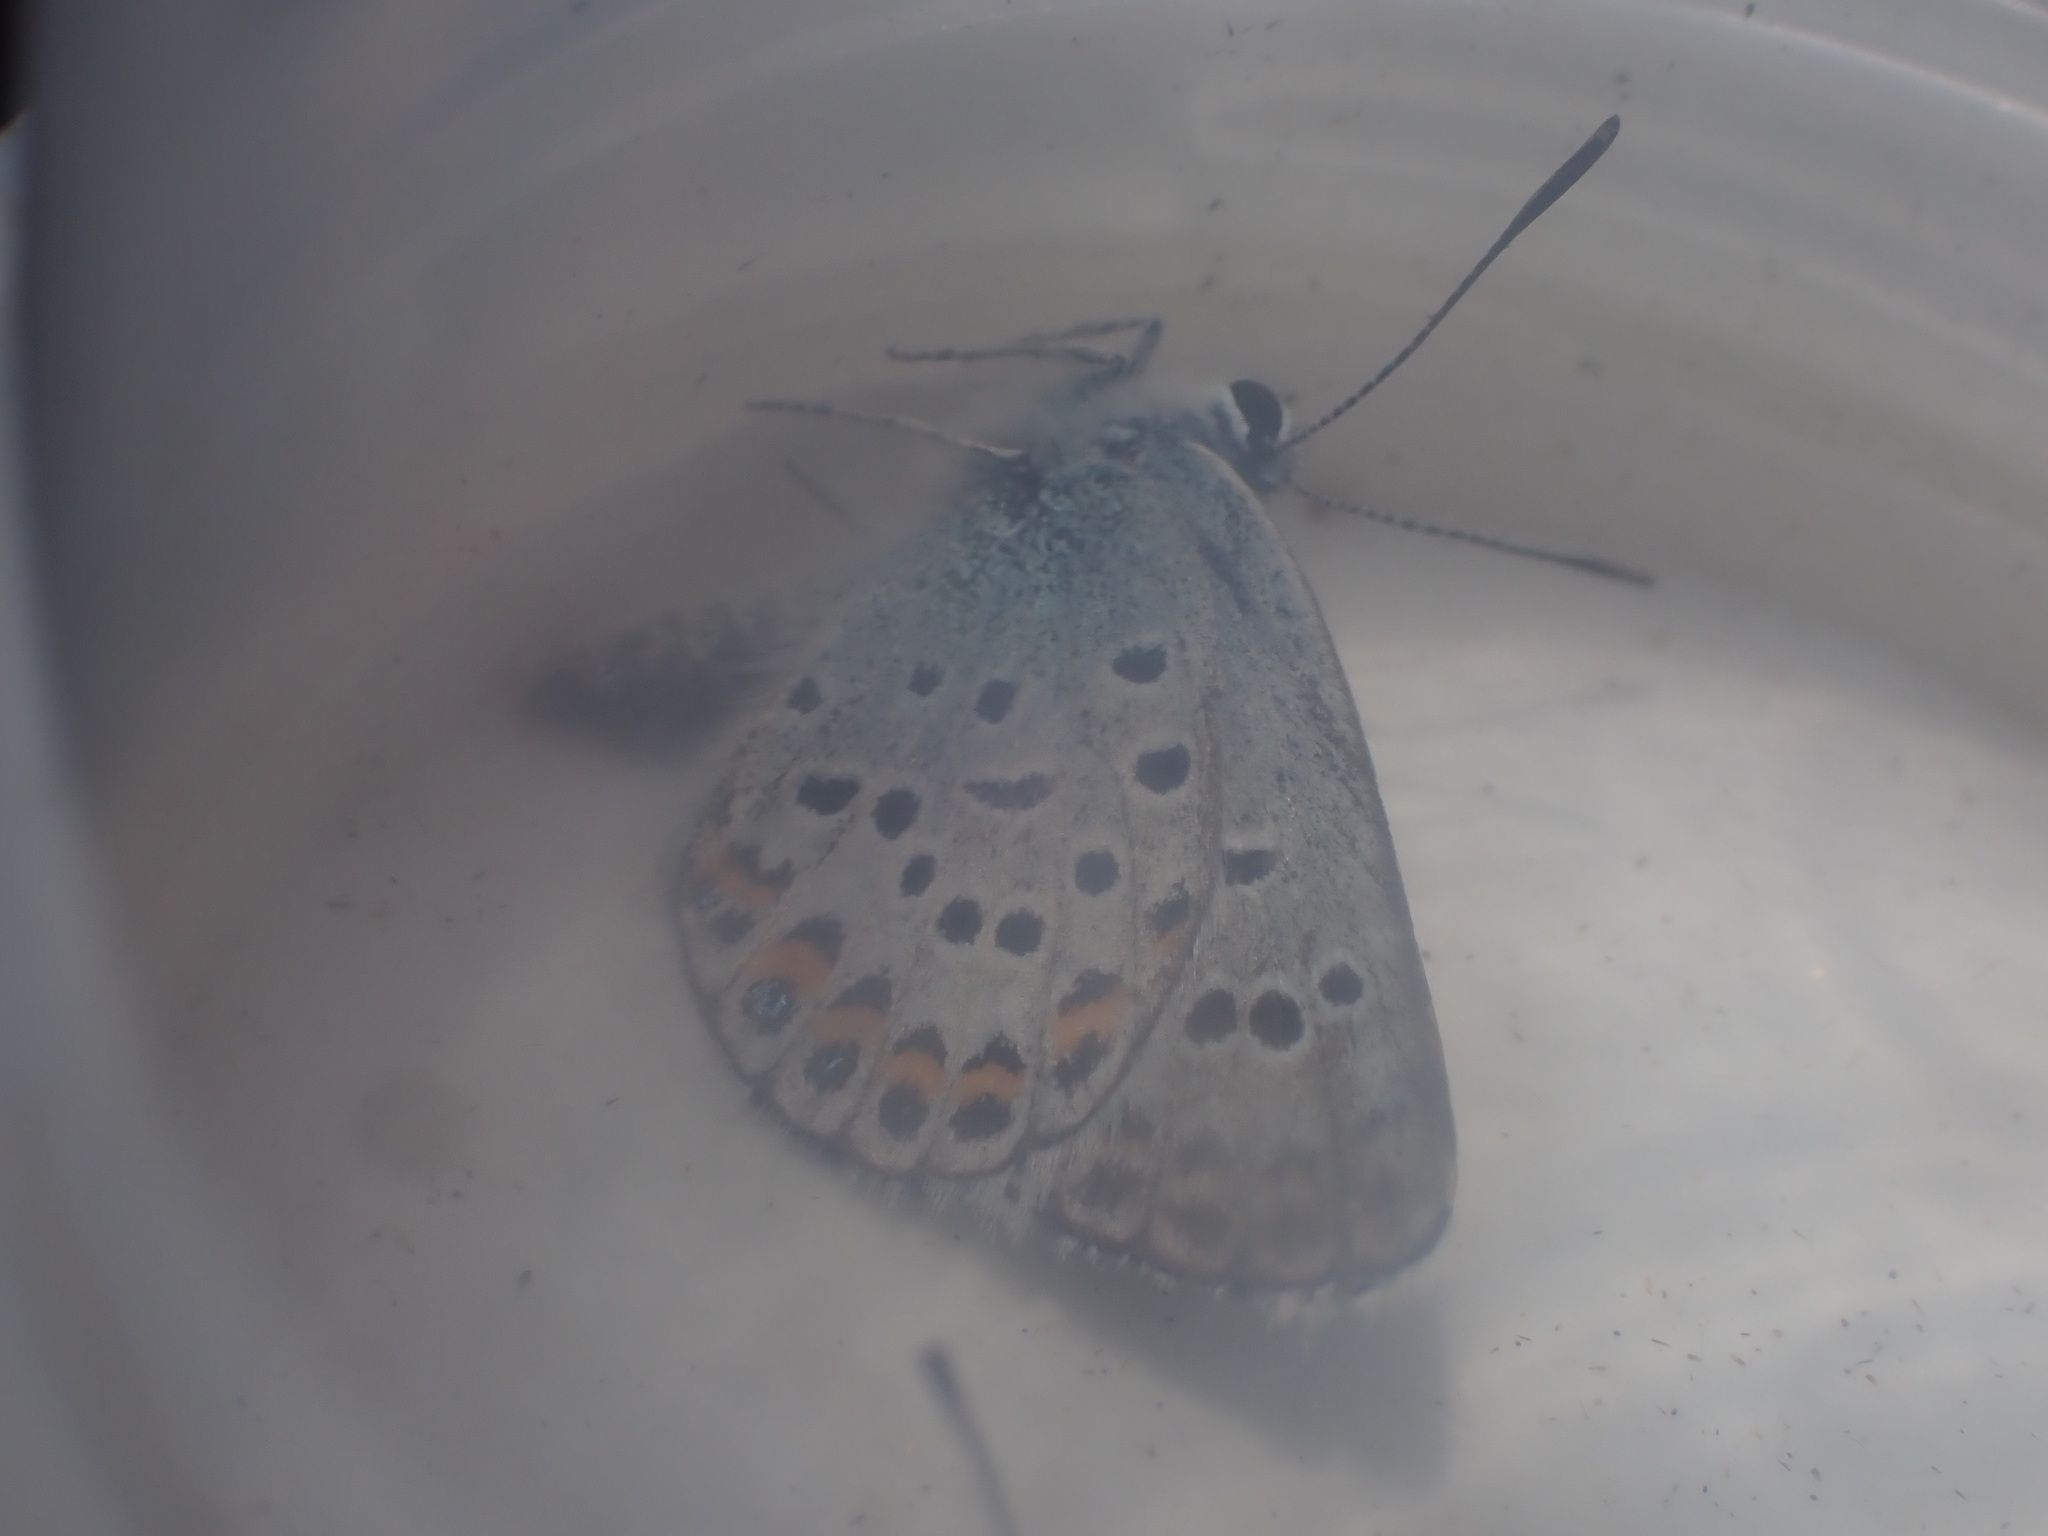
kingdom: Animalia
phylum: Arthropoda
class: Insecta
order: Lepidoptera
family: Lycaenidae
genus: Plebejus
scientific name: Plebejus argus
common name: Silver-studded blue
